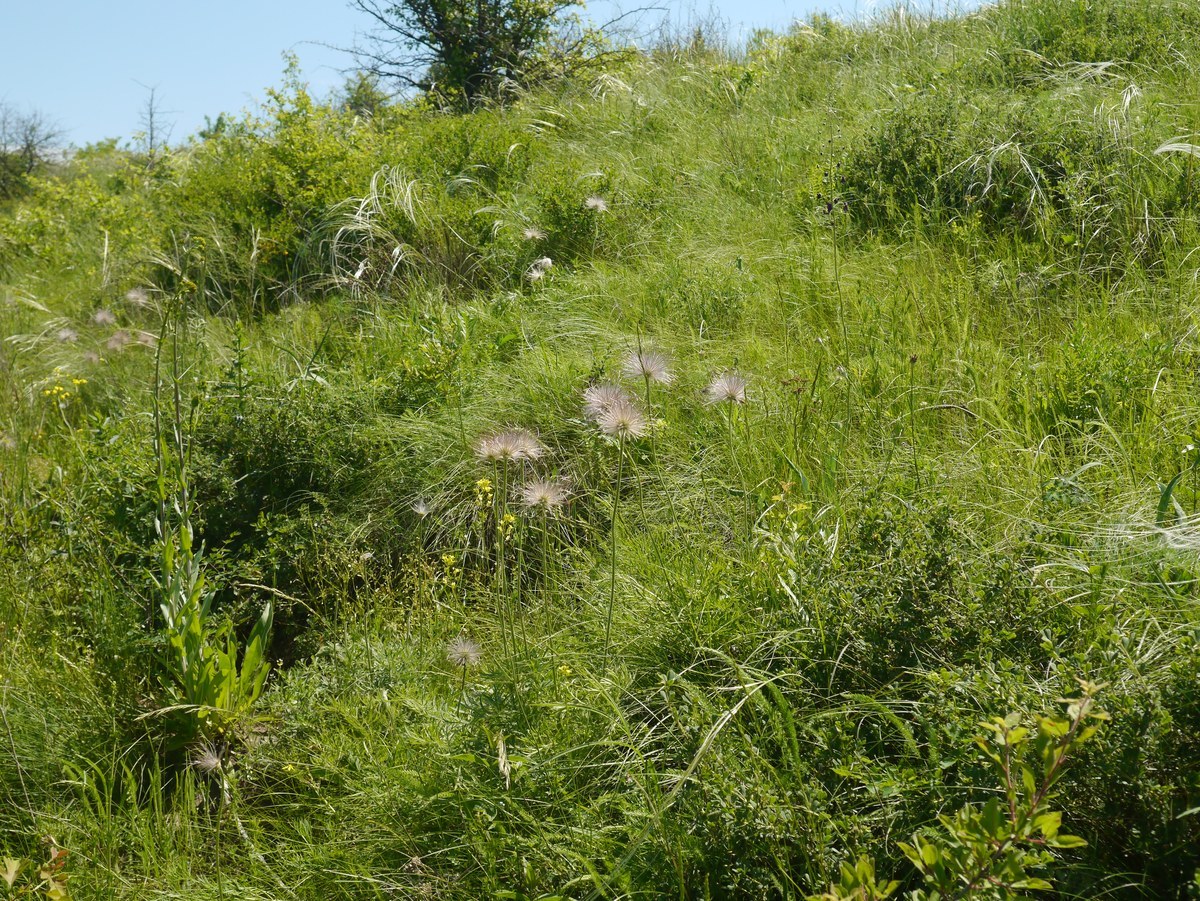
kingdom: Plantae
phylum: Tracheophyta
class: Magnoliopsida
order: Ranunculales
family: Ranunculaceae
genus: Pulsatilla
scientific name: Pulsatilla pratensis
